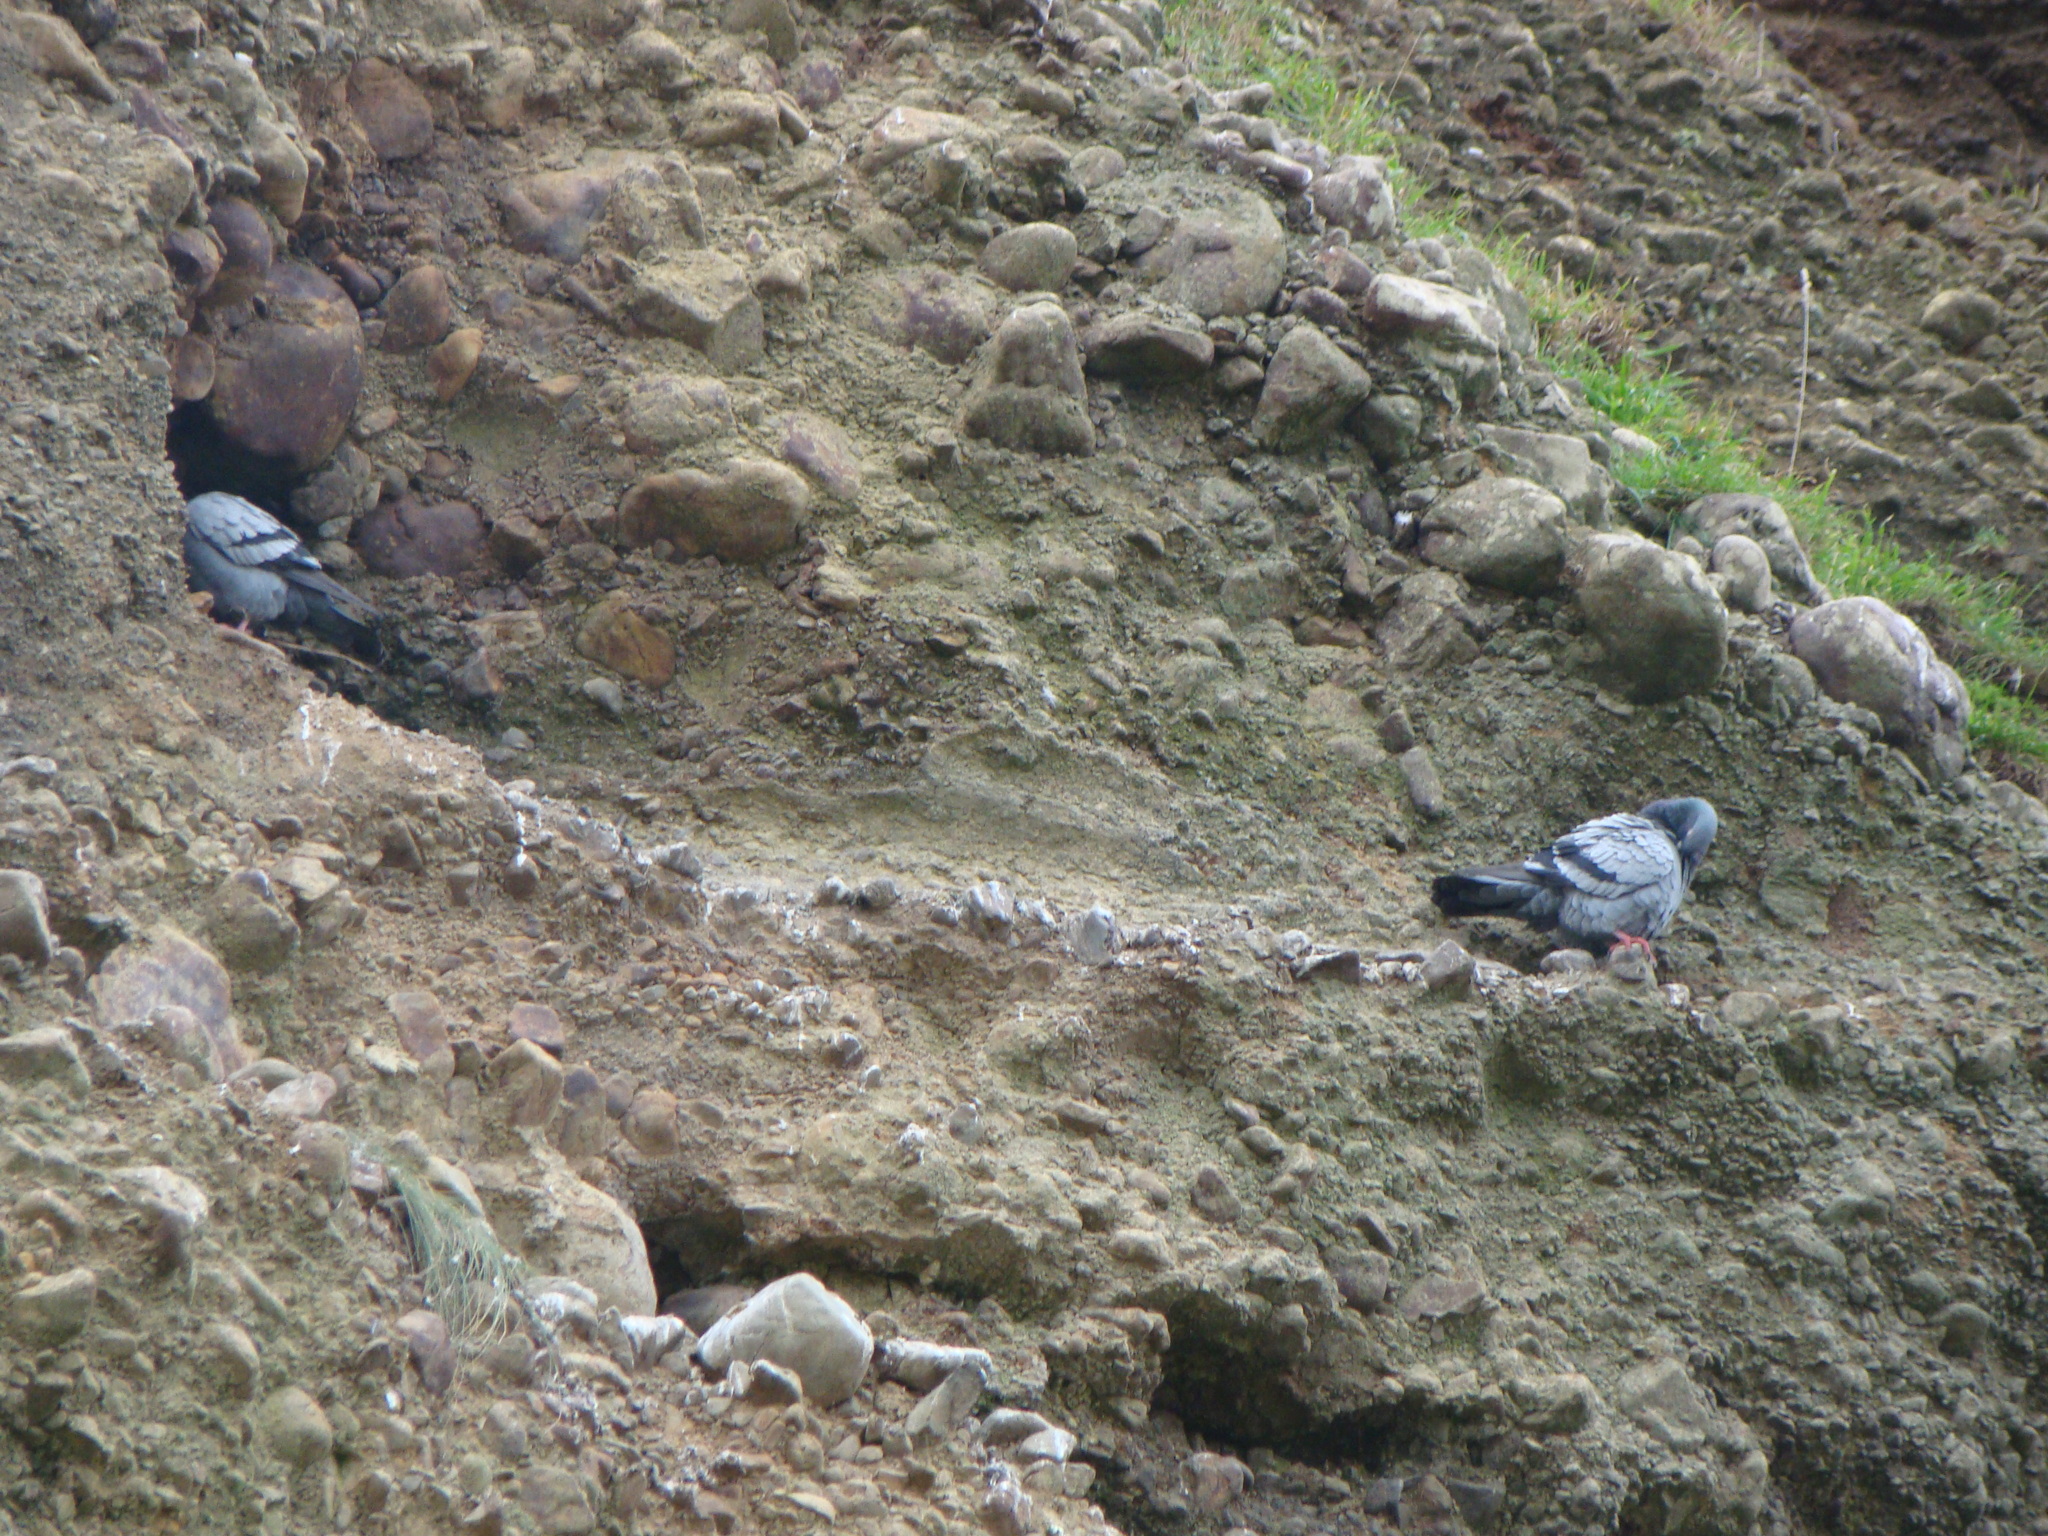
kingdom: Animalia
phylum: Chordata
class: Aves
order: Columbiformes
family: Columbidae
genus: Columba
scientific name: Columba livia
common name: Rock pigeon
